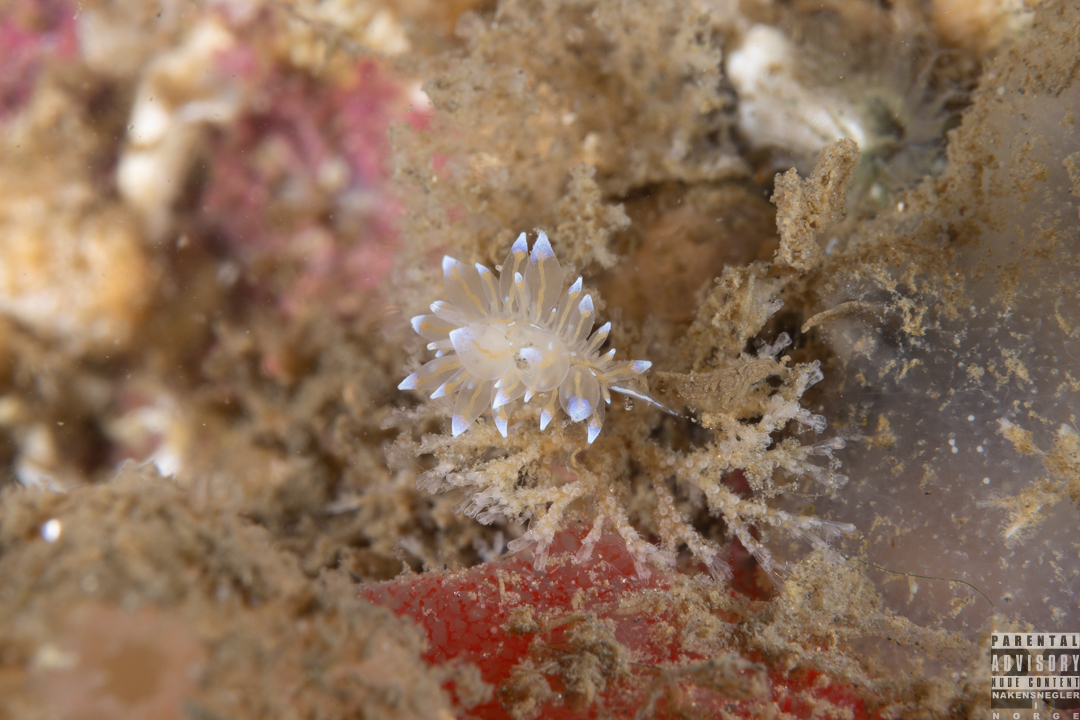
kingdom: Animalia
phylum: Mollusca
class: Gastropoda
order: Nudibranchia
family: Janolidae
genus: Antiopella
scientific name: Antiopella cristata
